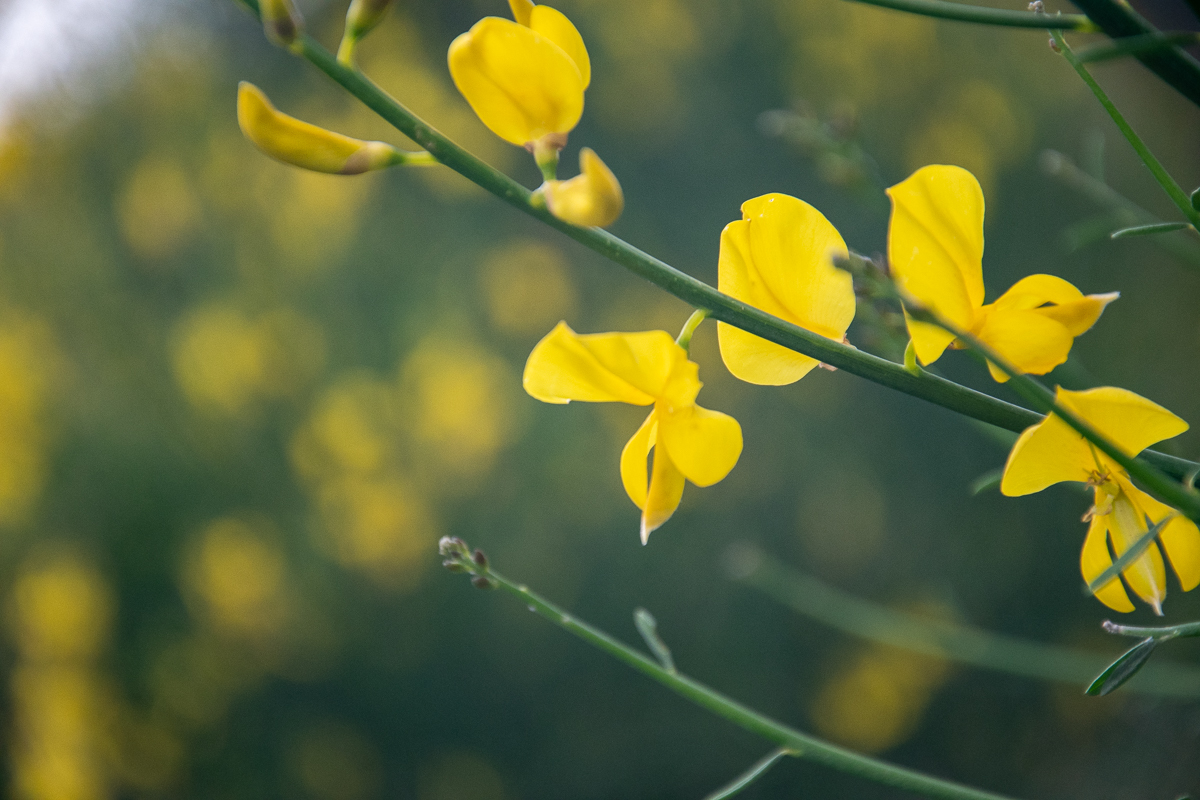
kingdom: Plantae
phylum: Tracheophyta
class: Magnoliopsida
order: Fabales
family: Fabaceae
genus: Spartium
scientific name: Spartium junceum
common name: Spanish broom
